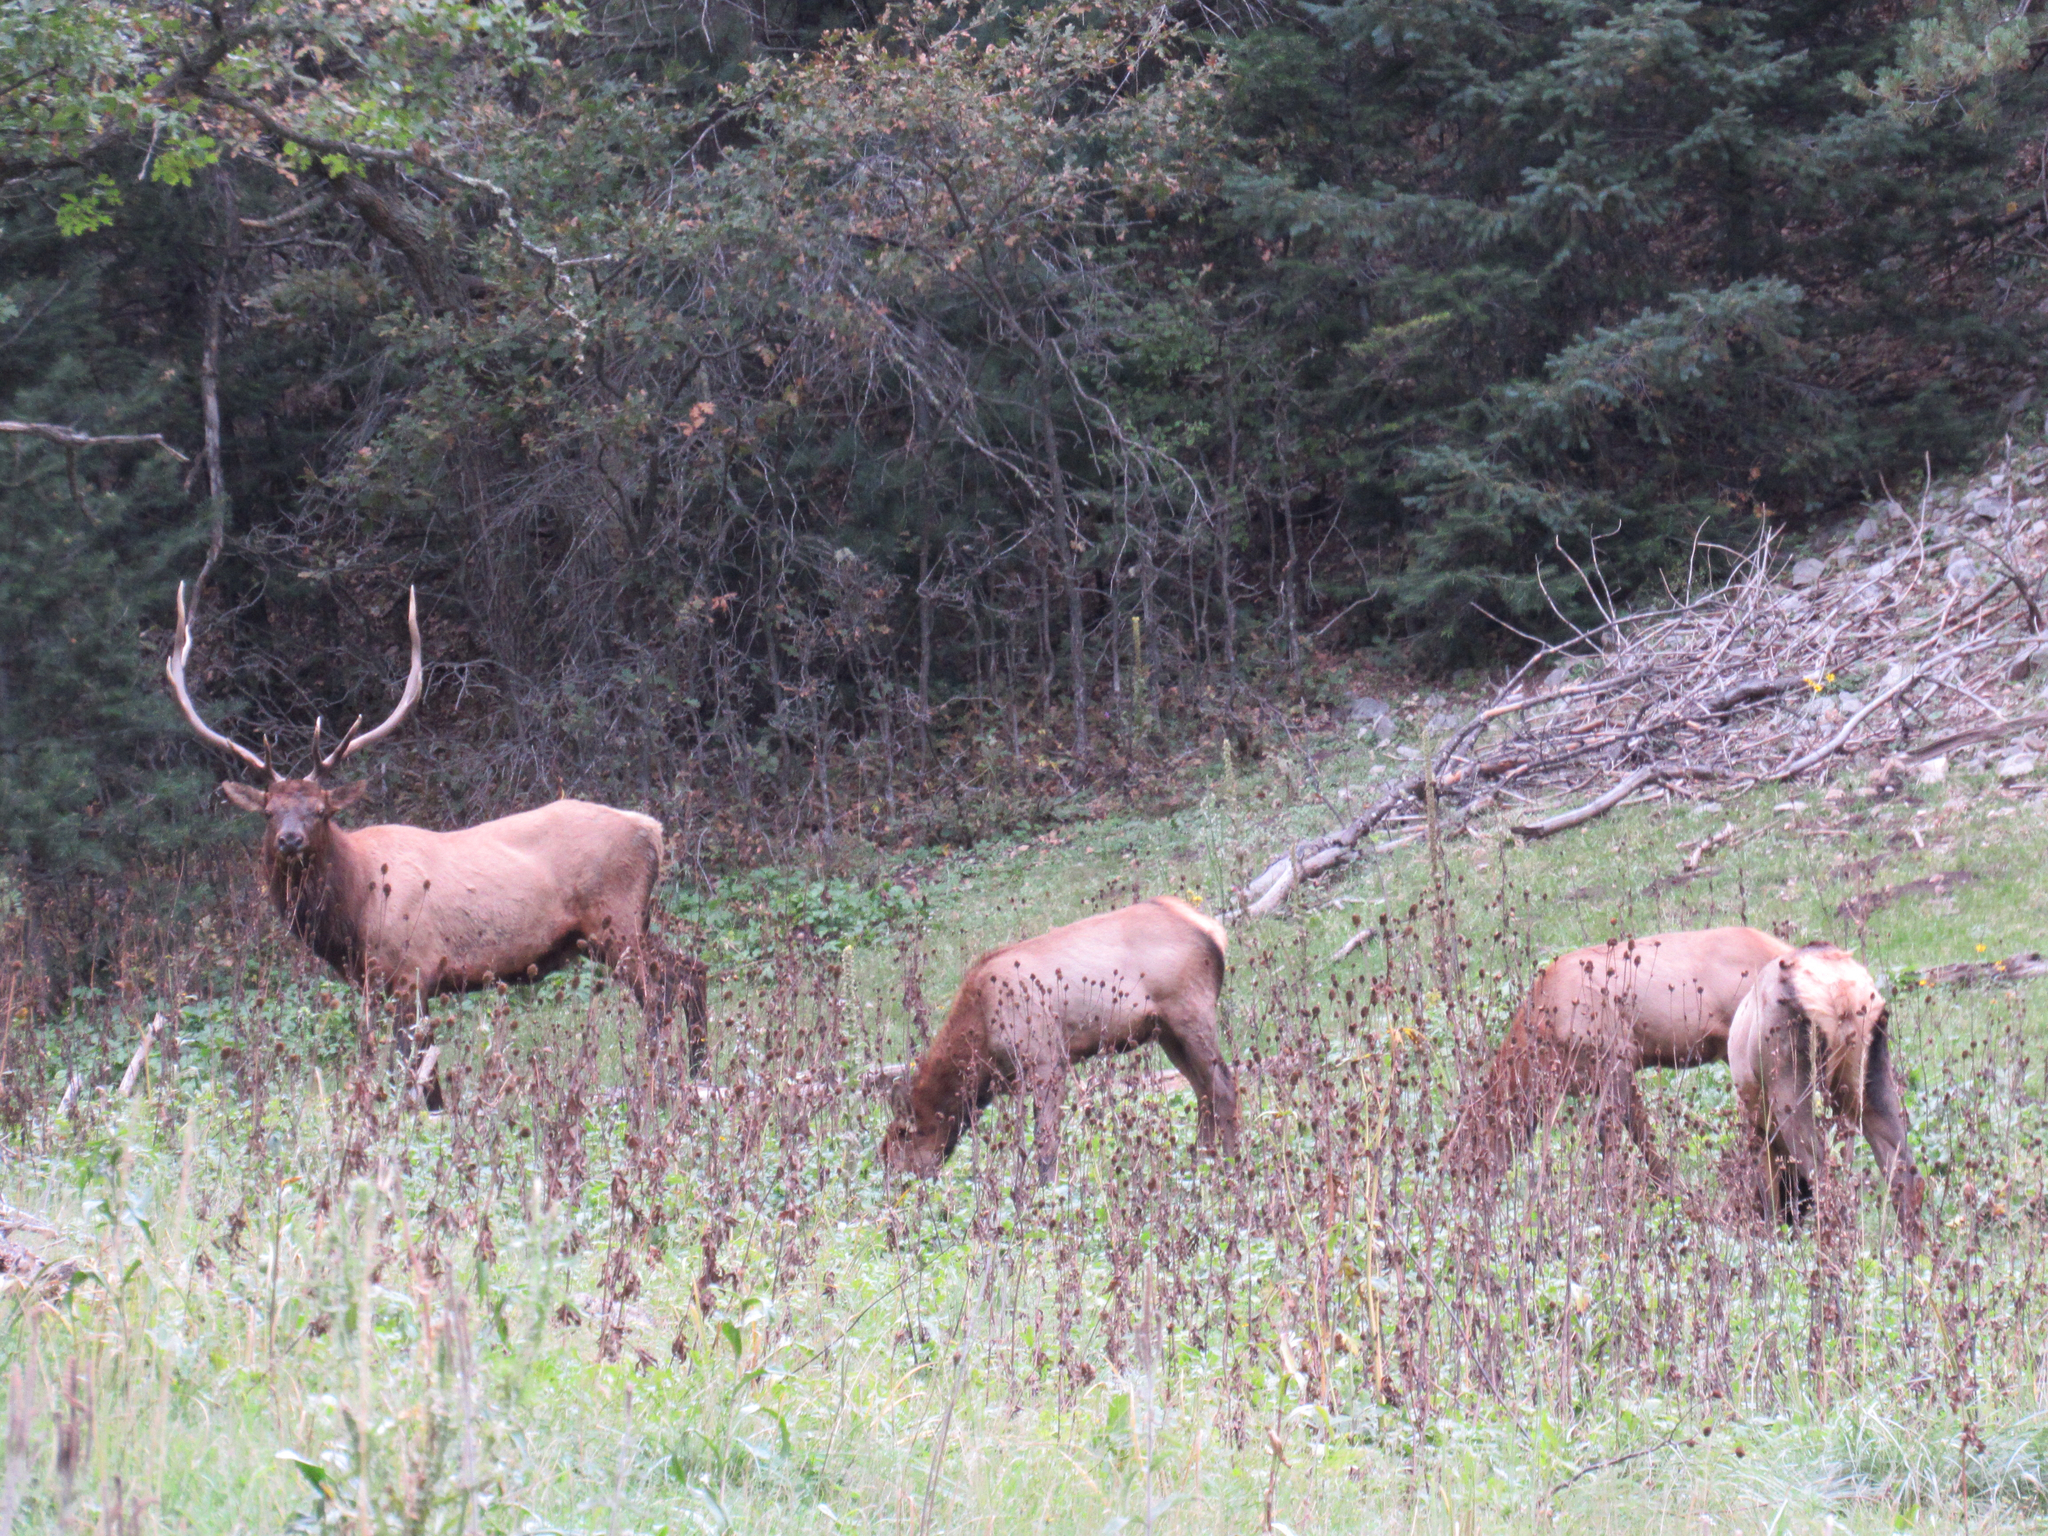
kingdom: Animalia
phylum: Chordata
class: Mammalia
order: Artiodactyla
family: Cervidae
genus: Cervus
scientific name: Cervus elaphus
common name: Red deer
